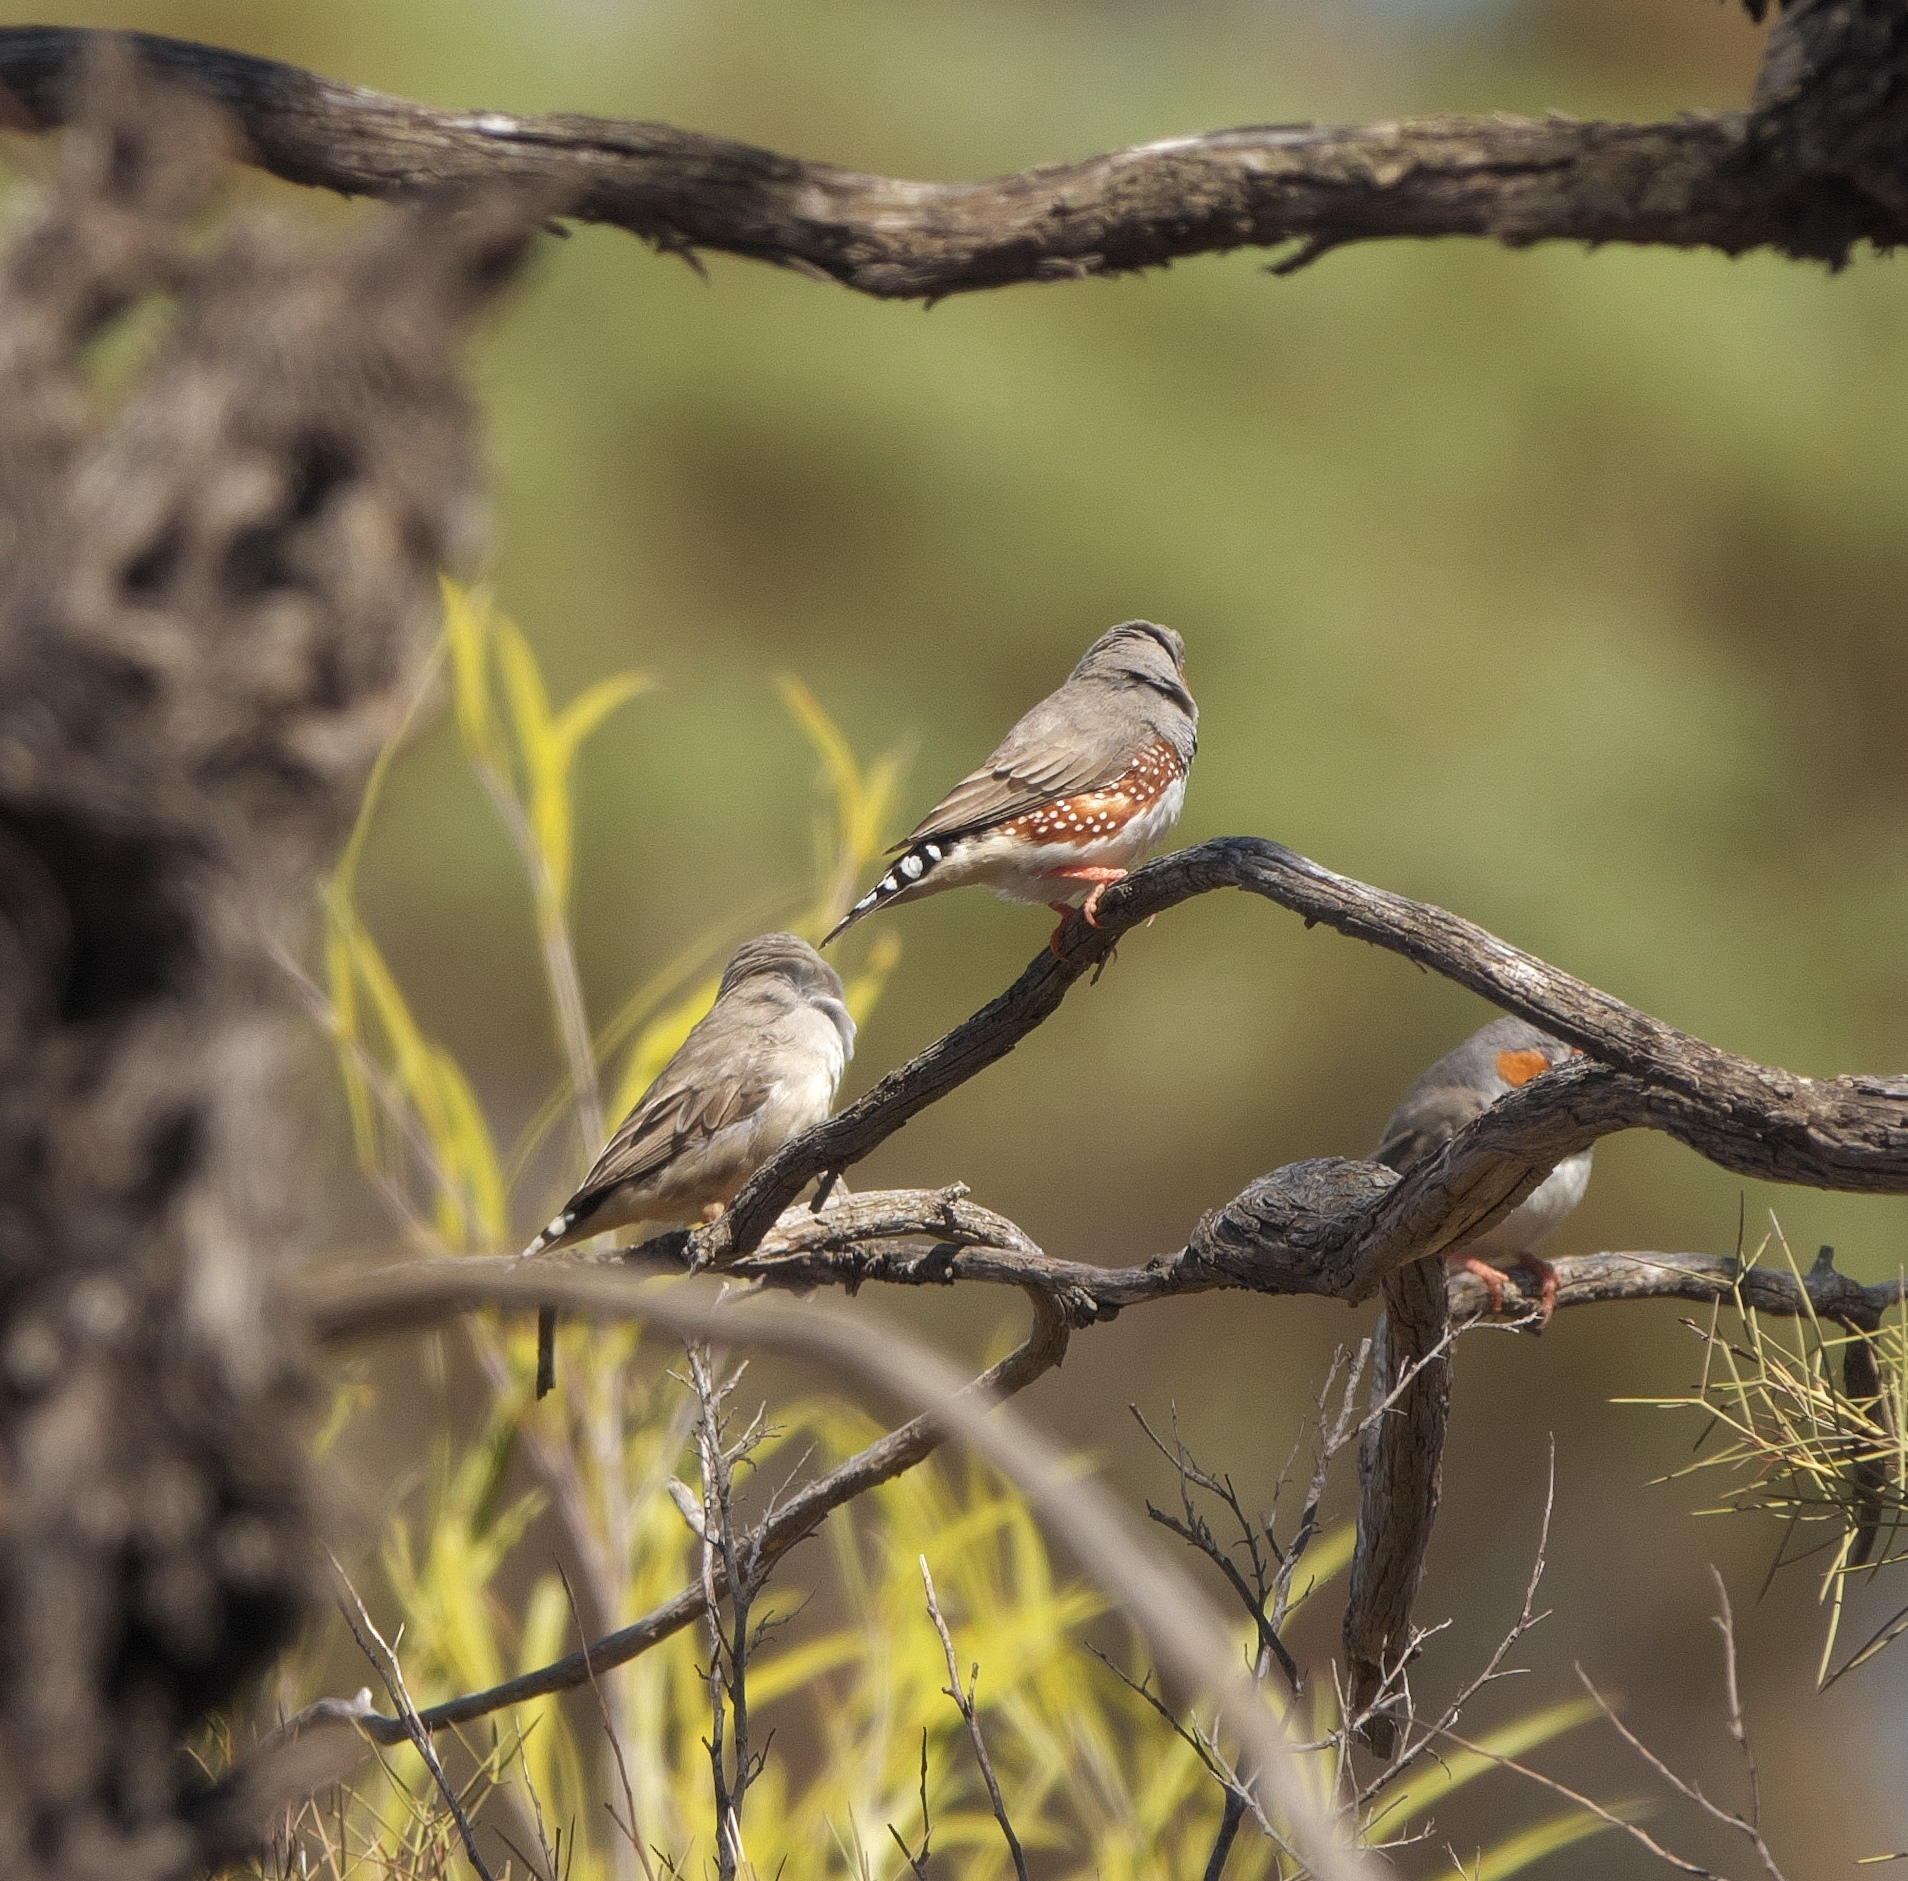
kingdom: Animalia
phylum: Chordata
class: Aves
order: Passeriformes
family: Estrildidae
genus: Taeniopygia
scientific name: Taeniopygia guttata
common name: Zebra finch
